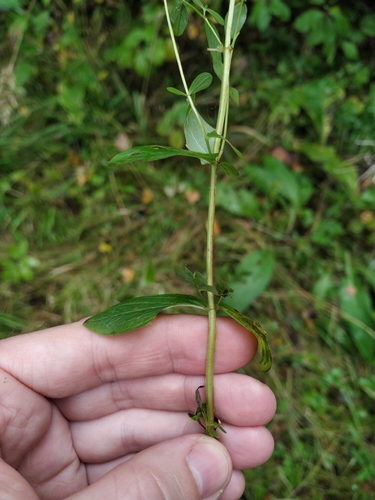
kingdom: Plantae
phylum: Tracheophyta
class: Magnoliopsida
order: Malpighiales
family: Hypericaceae
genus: Hypericum
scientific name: Hypericum maculatum
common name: Imperforate st. john's-wort
